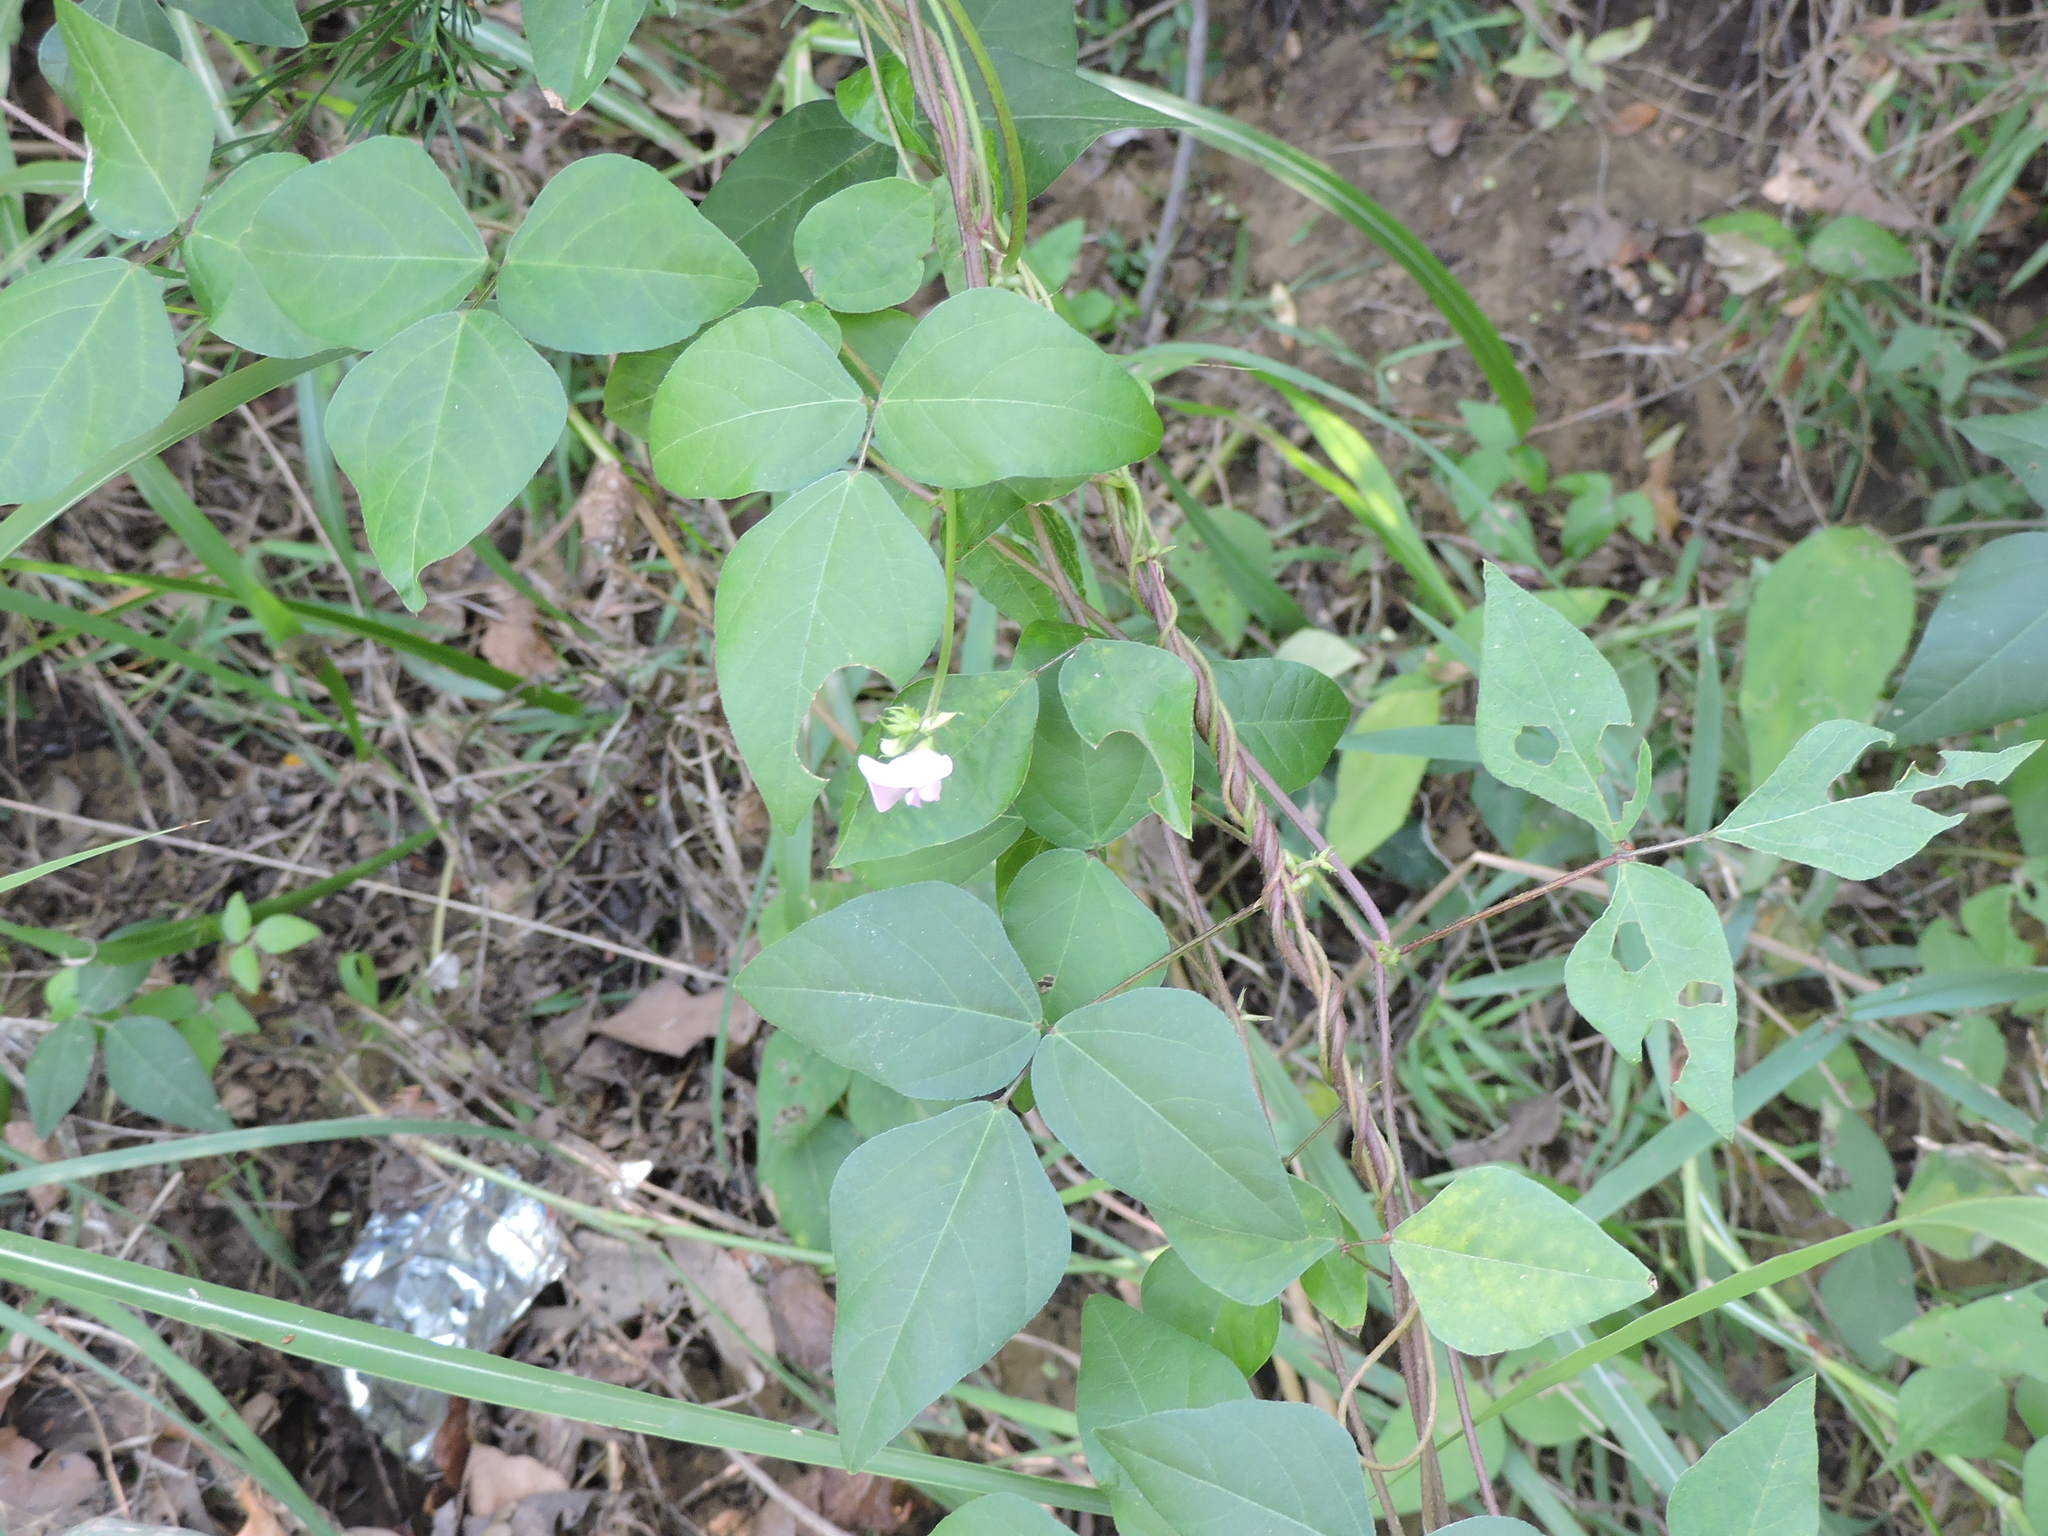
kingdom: Plantae
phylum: Tracheophyta
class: Magnoliopsida
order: Fabales
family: Fabaceae
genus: Strophostyles
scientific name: Strophostyles helvola
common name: Trailing wild bean
